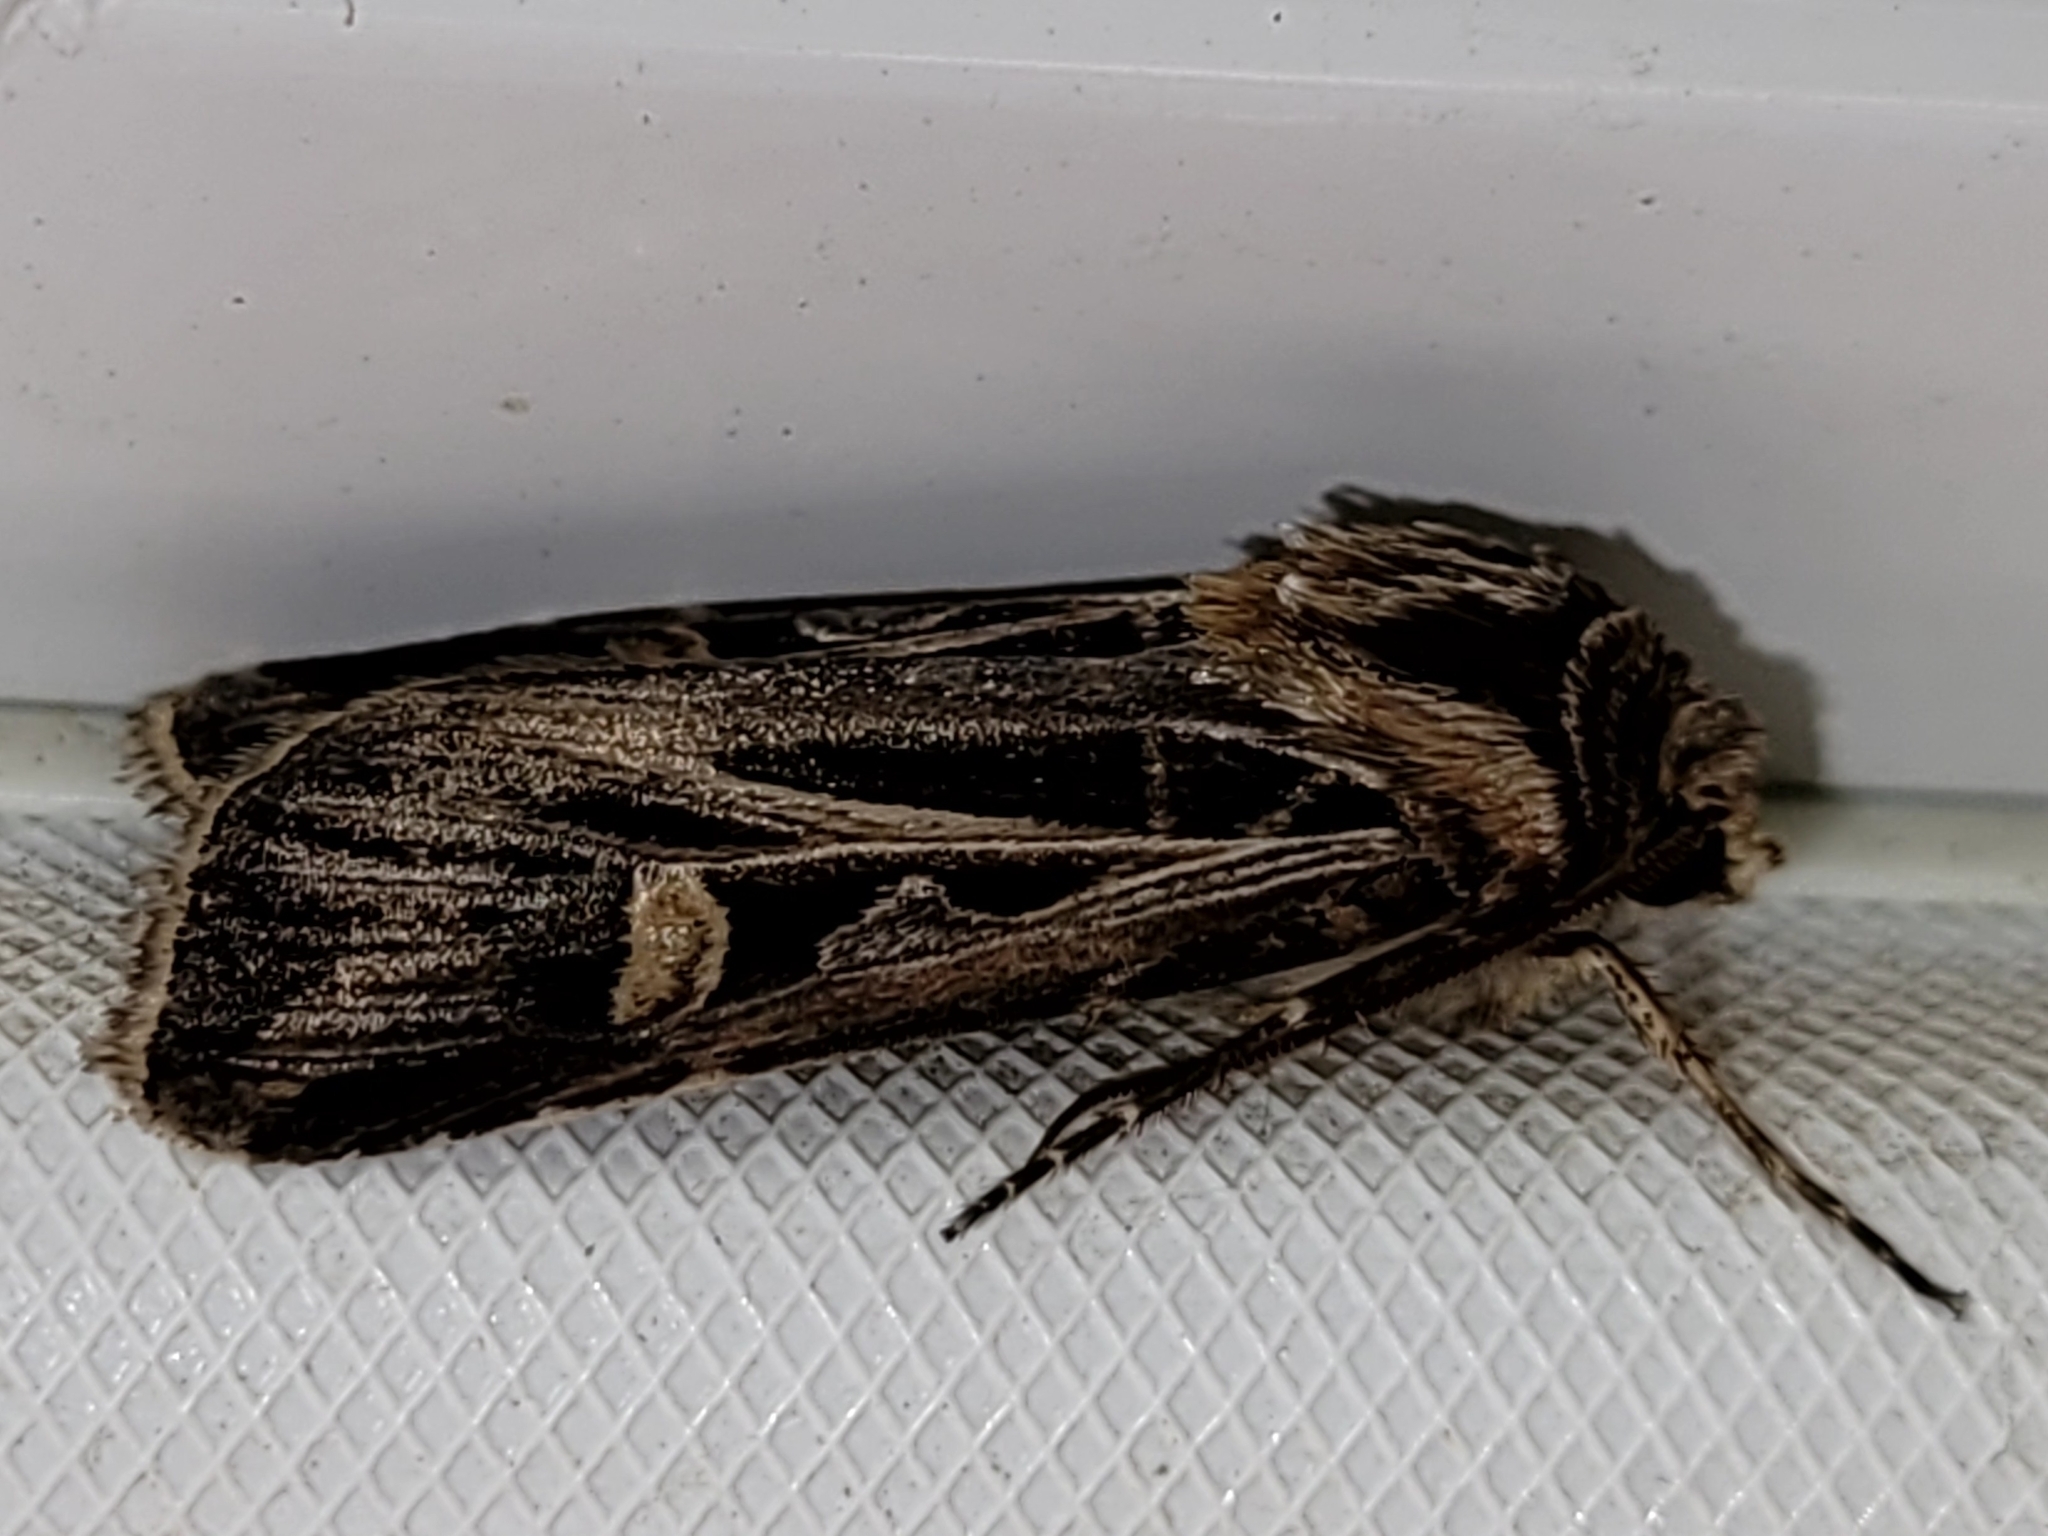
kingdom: Animalia
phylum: Arthropoda
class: Insecta
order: Lepidoptera
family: Noctuidae
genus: Feltia
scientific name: Feltia jaculifera
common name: Dingy cutworm moth
